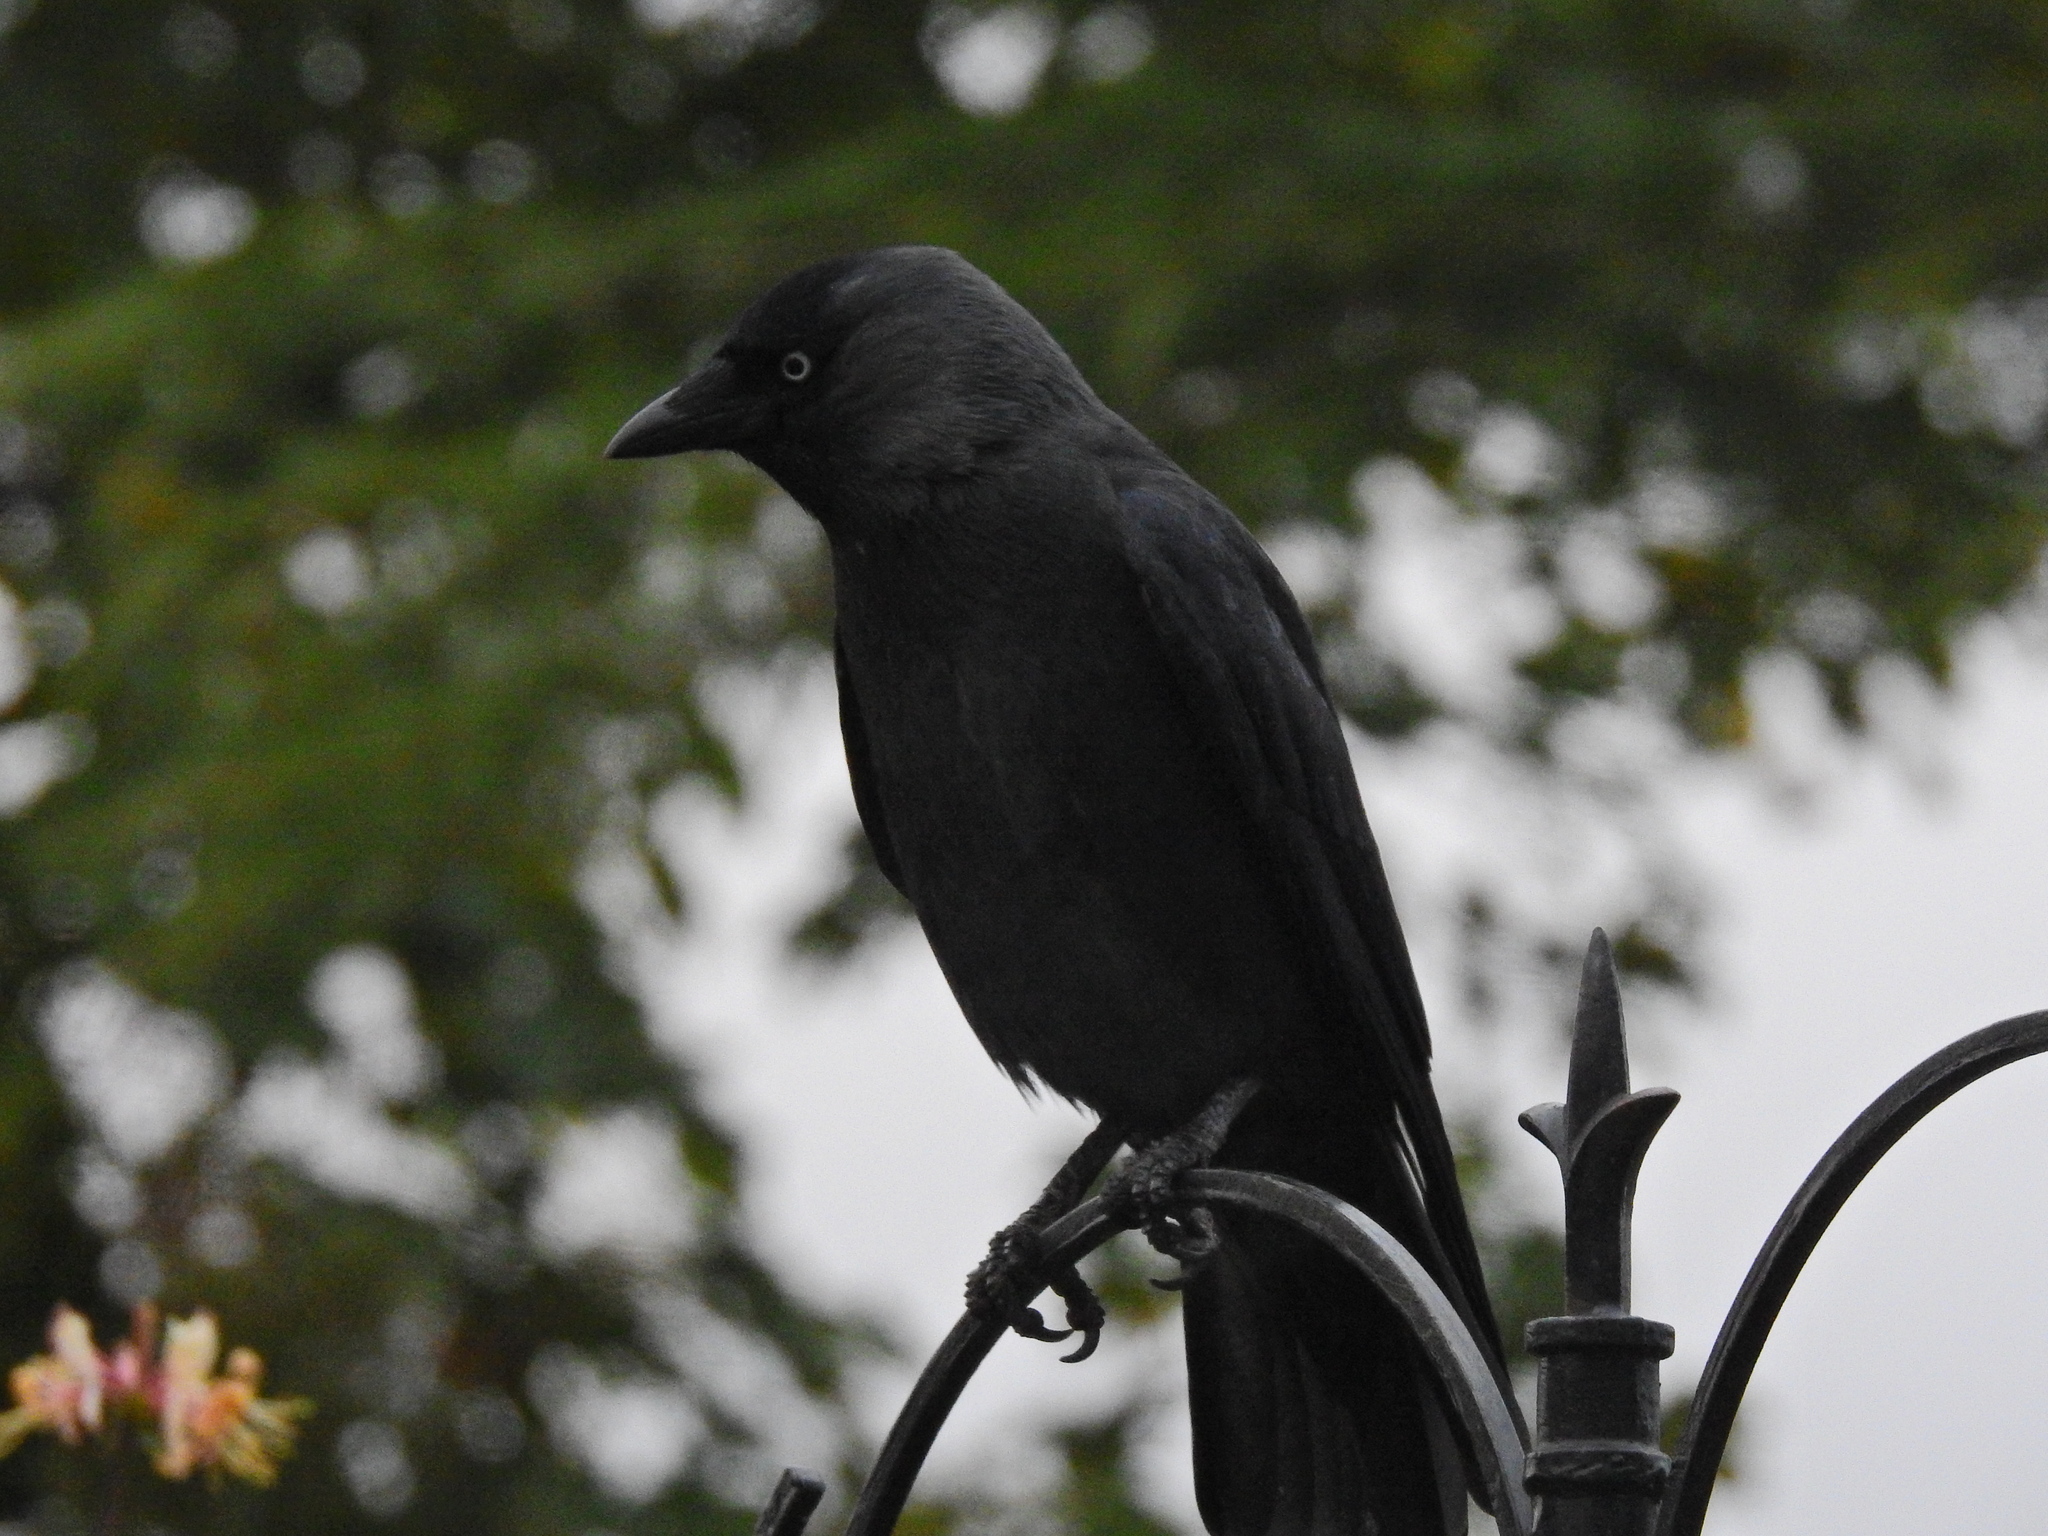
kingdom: Animalia
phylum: Chordata
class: Aves
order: Passeriformes
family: Corvidae
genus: Coloeus
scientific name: Coloeus monedula
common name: Western jackdaw
